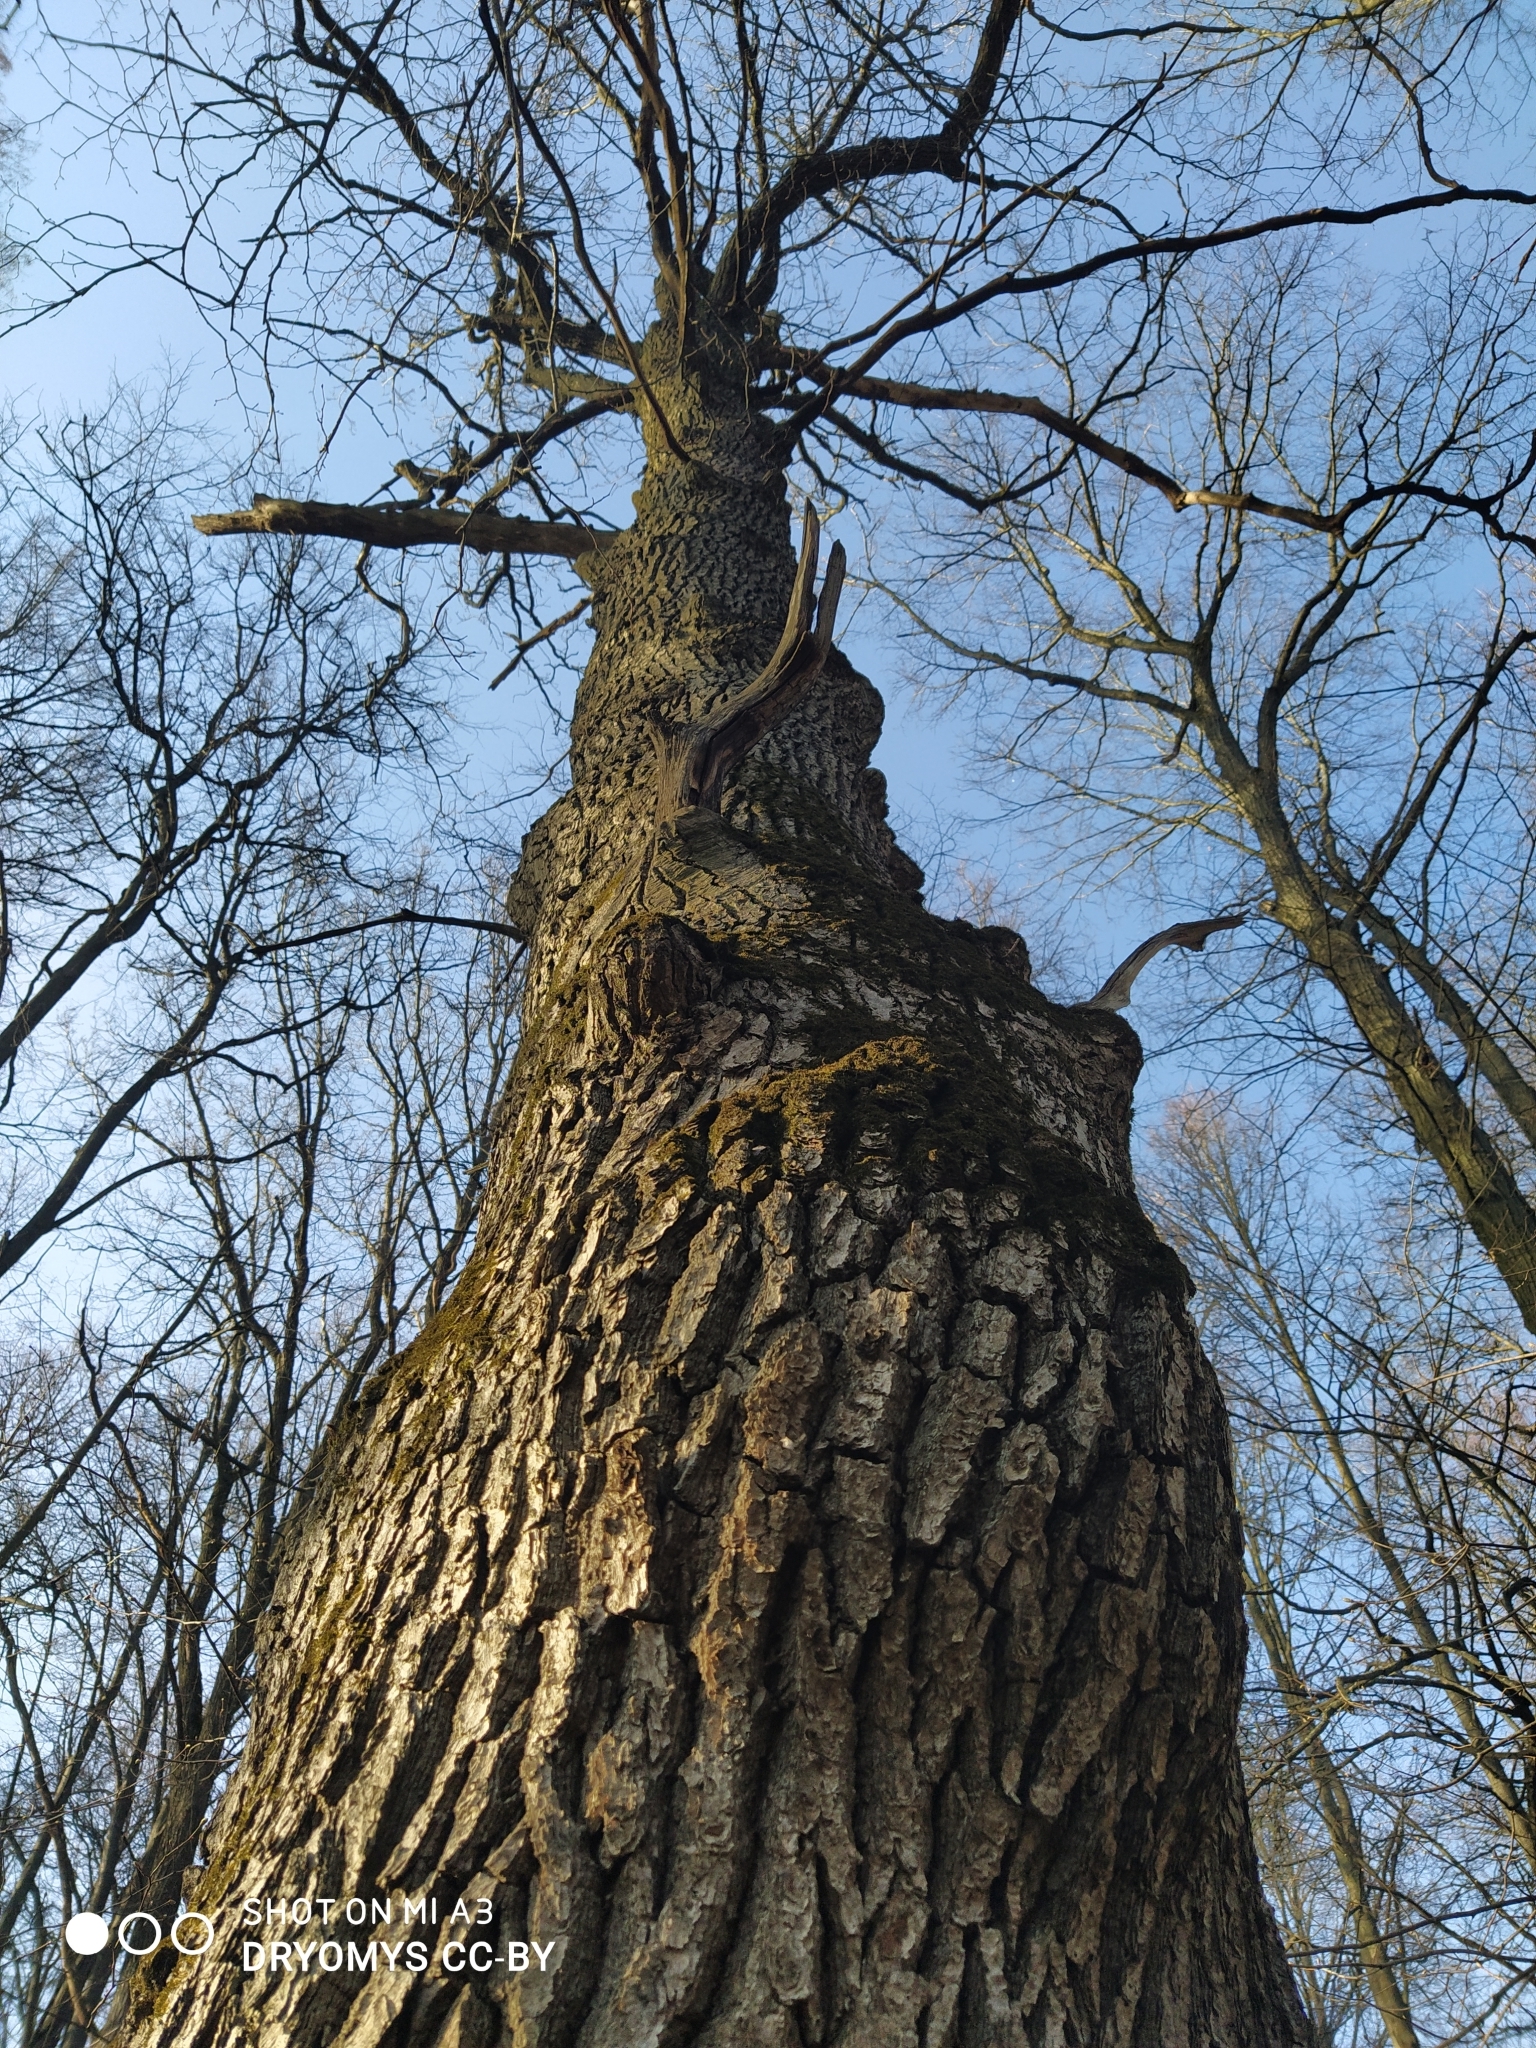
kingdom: Plantae
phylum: Tracheophyta
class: Magnoliopsida
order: Fagales
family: Fagaceae
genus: Quercus
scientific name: Quercus robur
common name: Pedunculate oak
